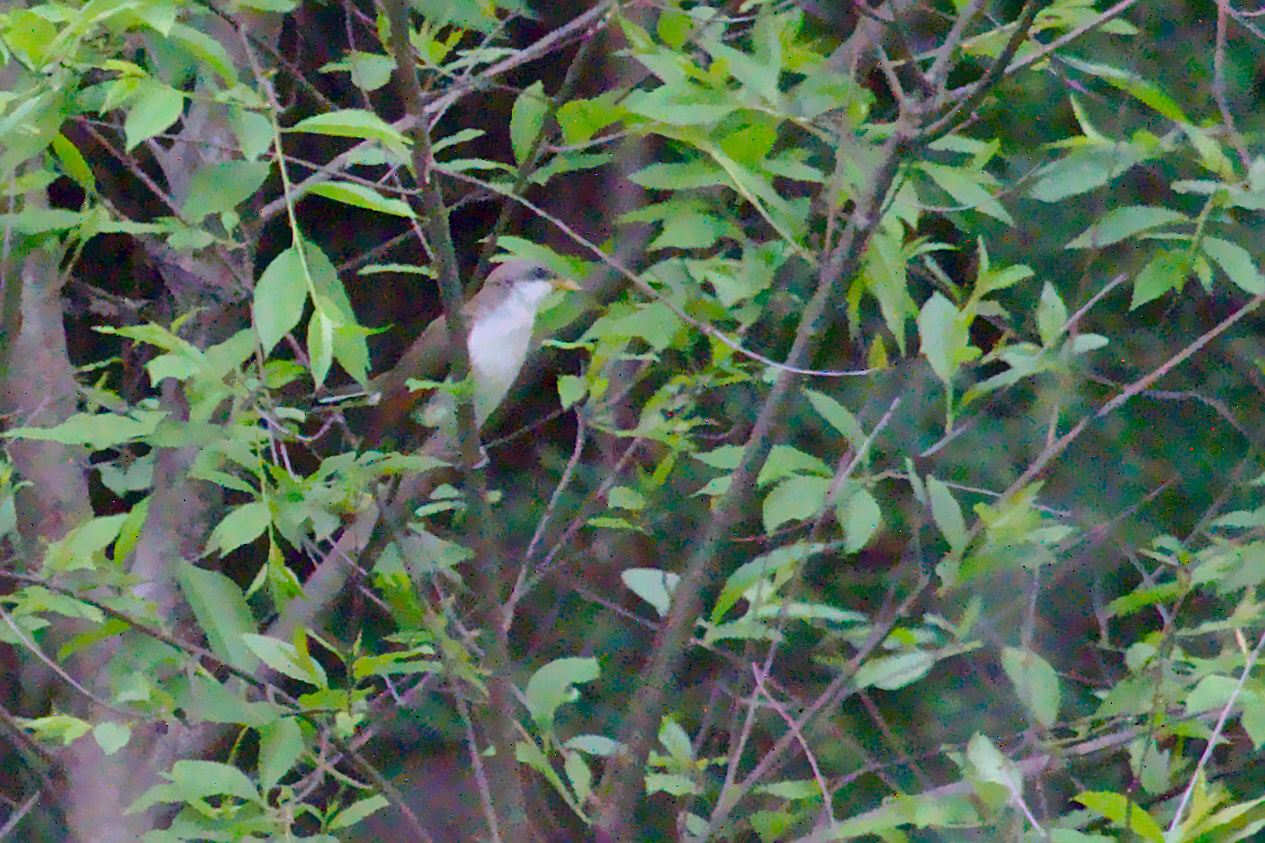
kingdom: Animalia
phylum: Chordata
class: Aves
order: Cuculiformes
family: Cuculidae
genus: Coccyzus
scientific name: Coccyzus americanus
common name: Yellow-billed cuckoo
